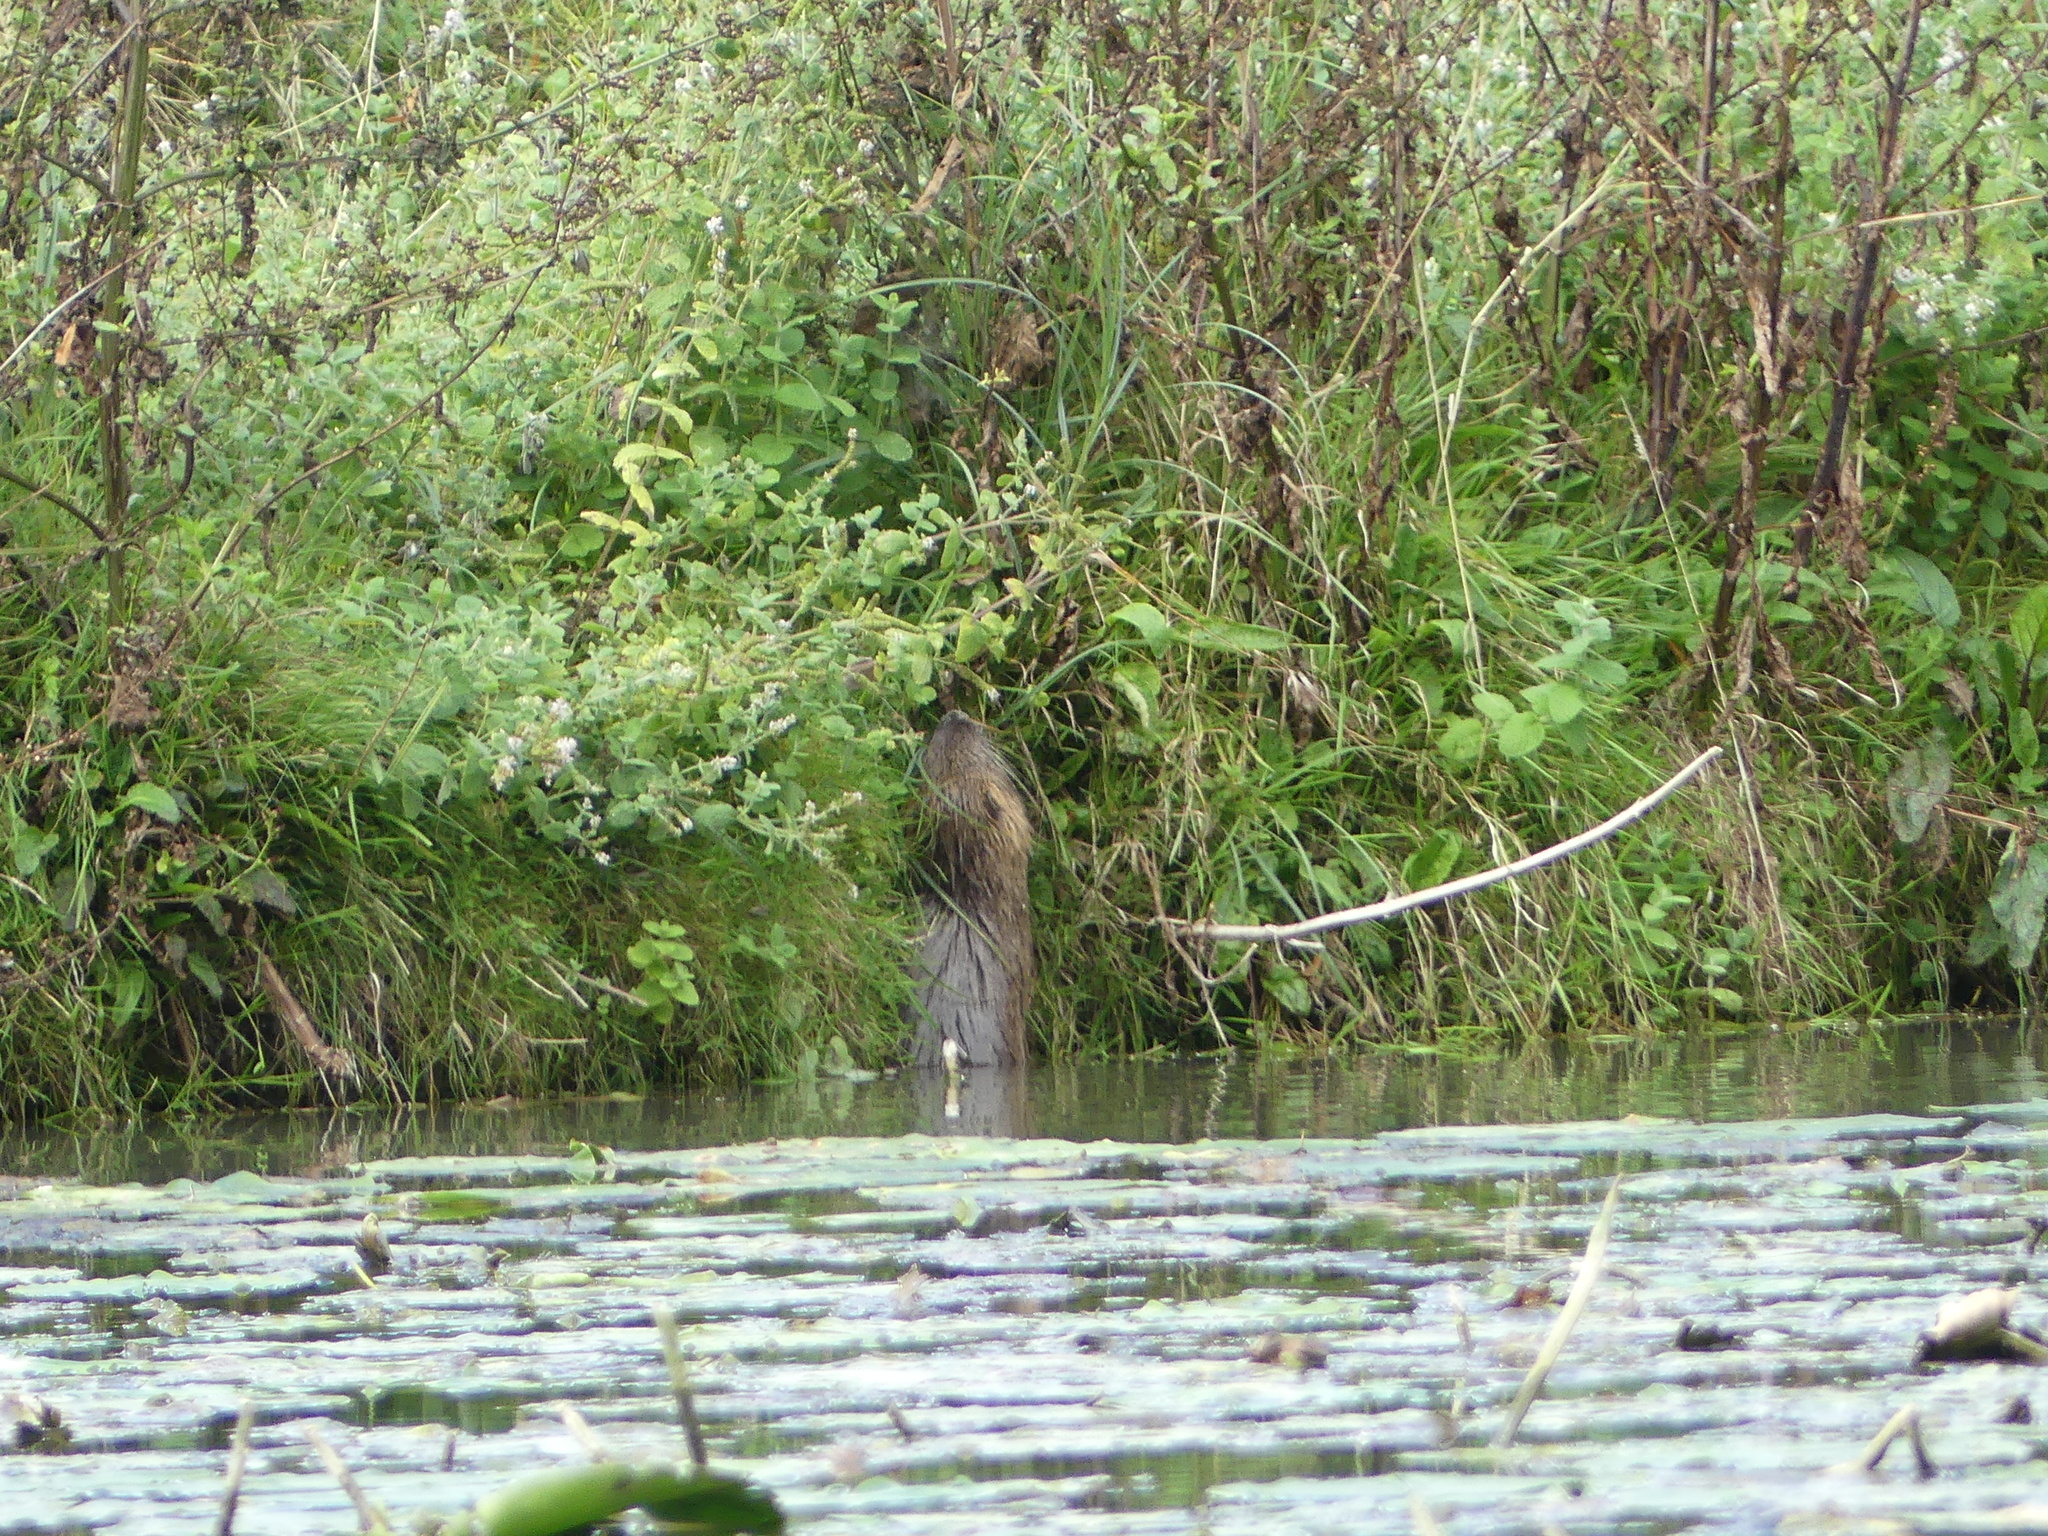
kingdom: Animalia
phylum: Chordata
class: Mammalia
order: Rodentia
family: Myocastoridae
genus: Myocastor
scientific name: Myocastor coypus
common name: Coypu
